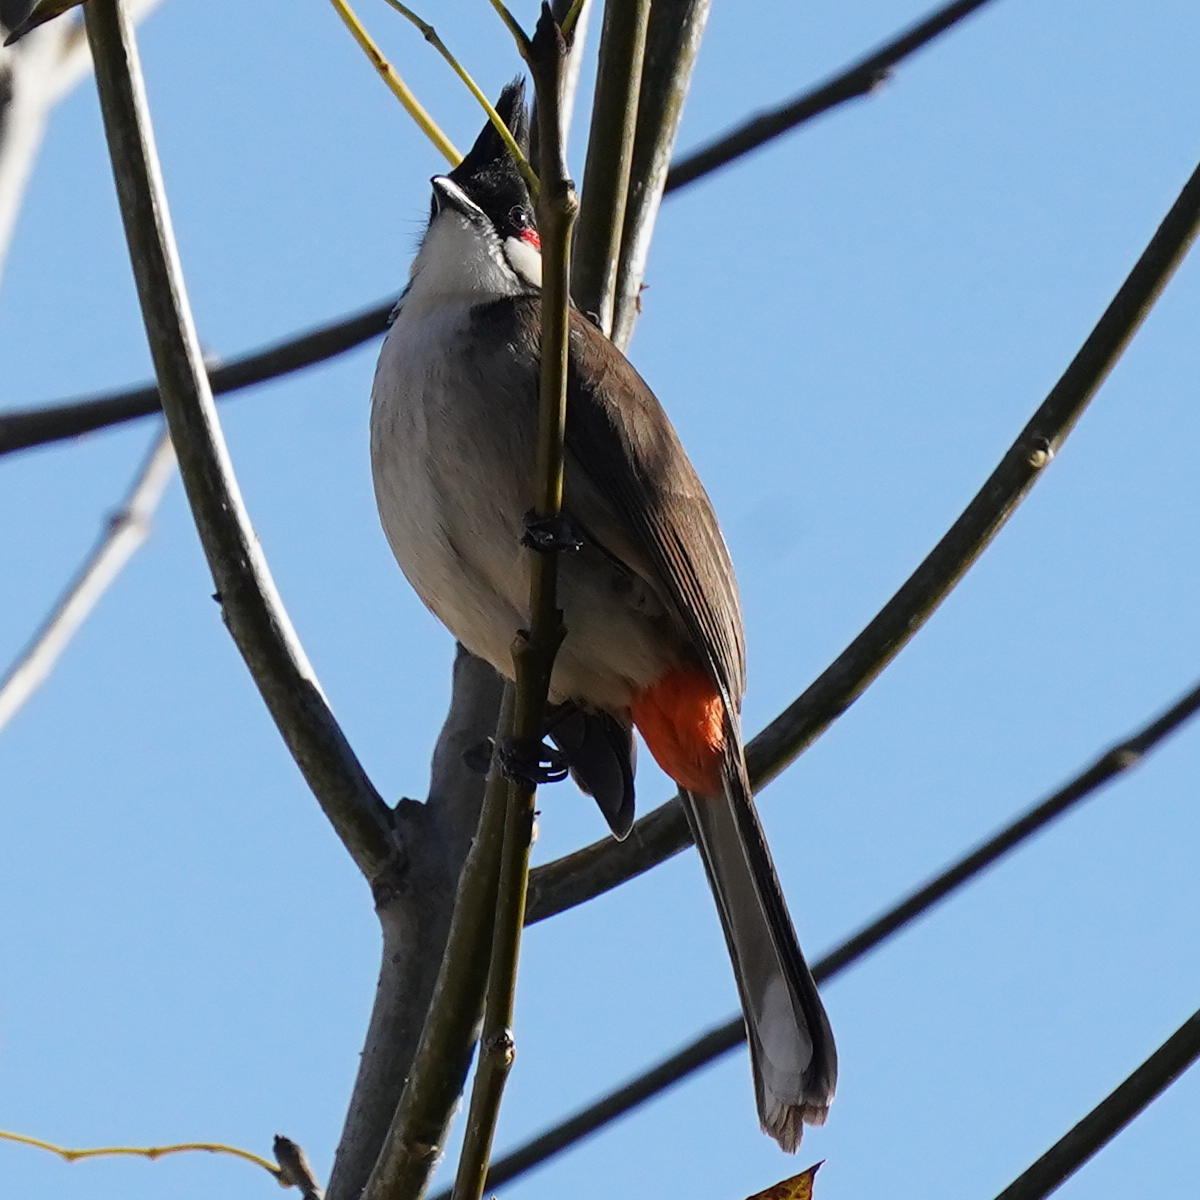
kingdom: Animalia
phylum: Chordata
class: Aves
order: Passeriformes
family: Pycnonotidae
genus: Pycnonotus
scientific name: Pycnonotus jocosus
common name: Red-whiskered bulbul
